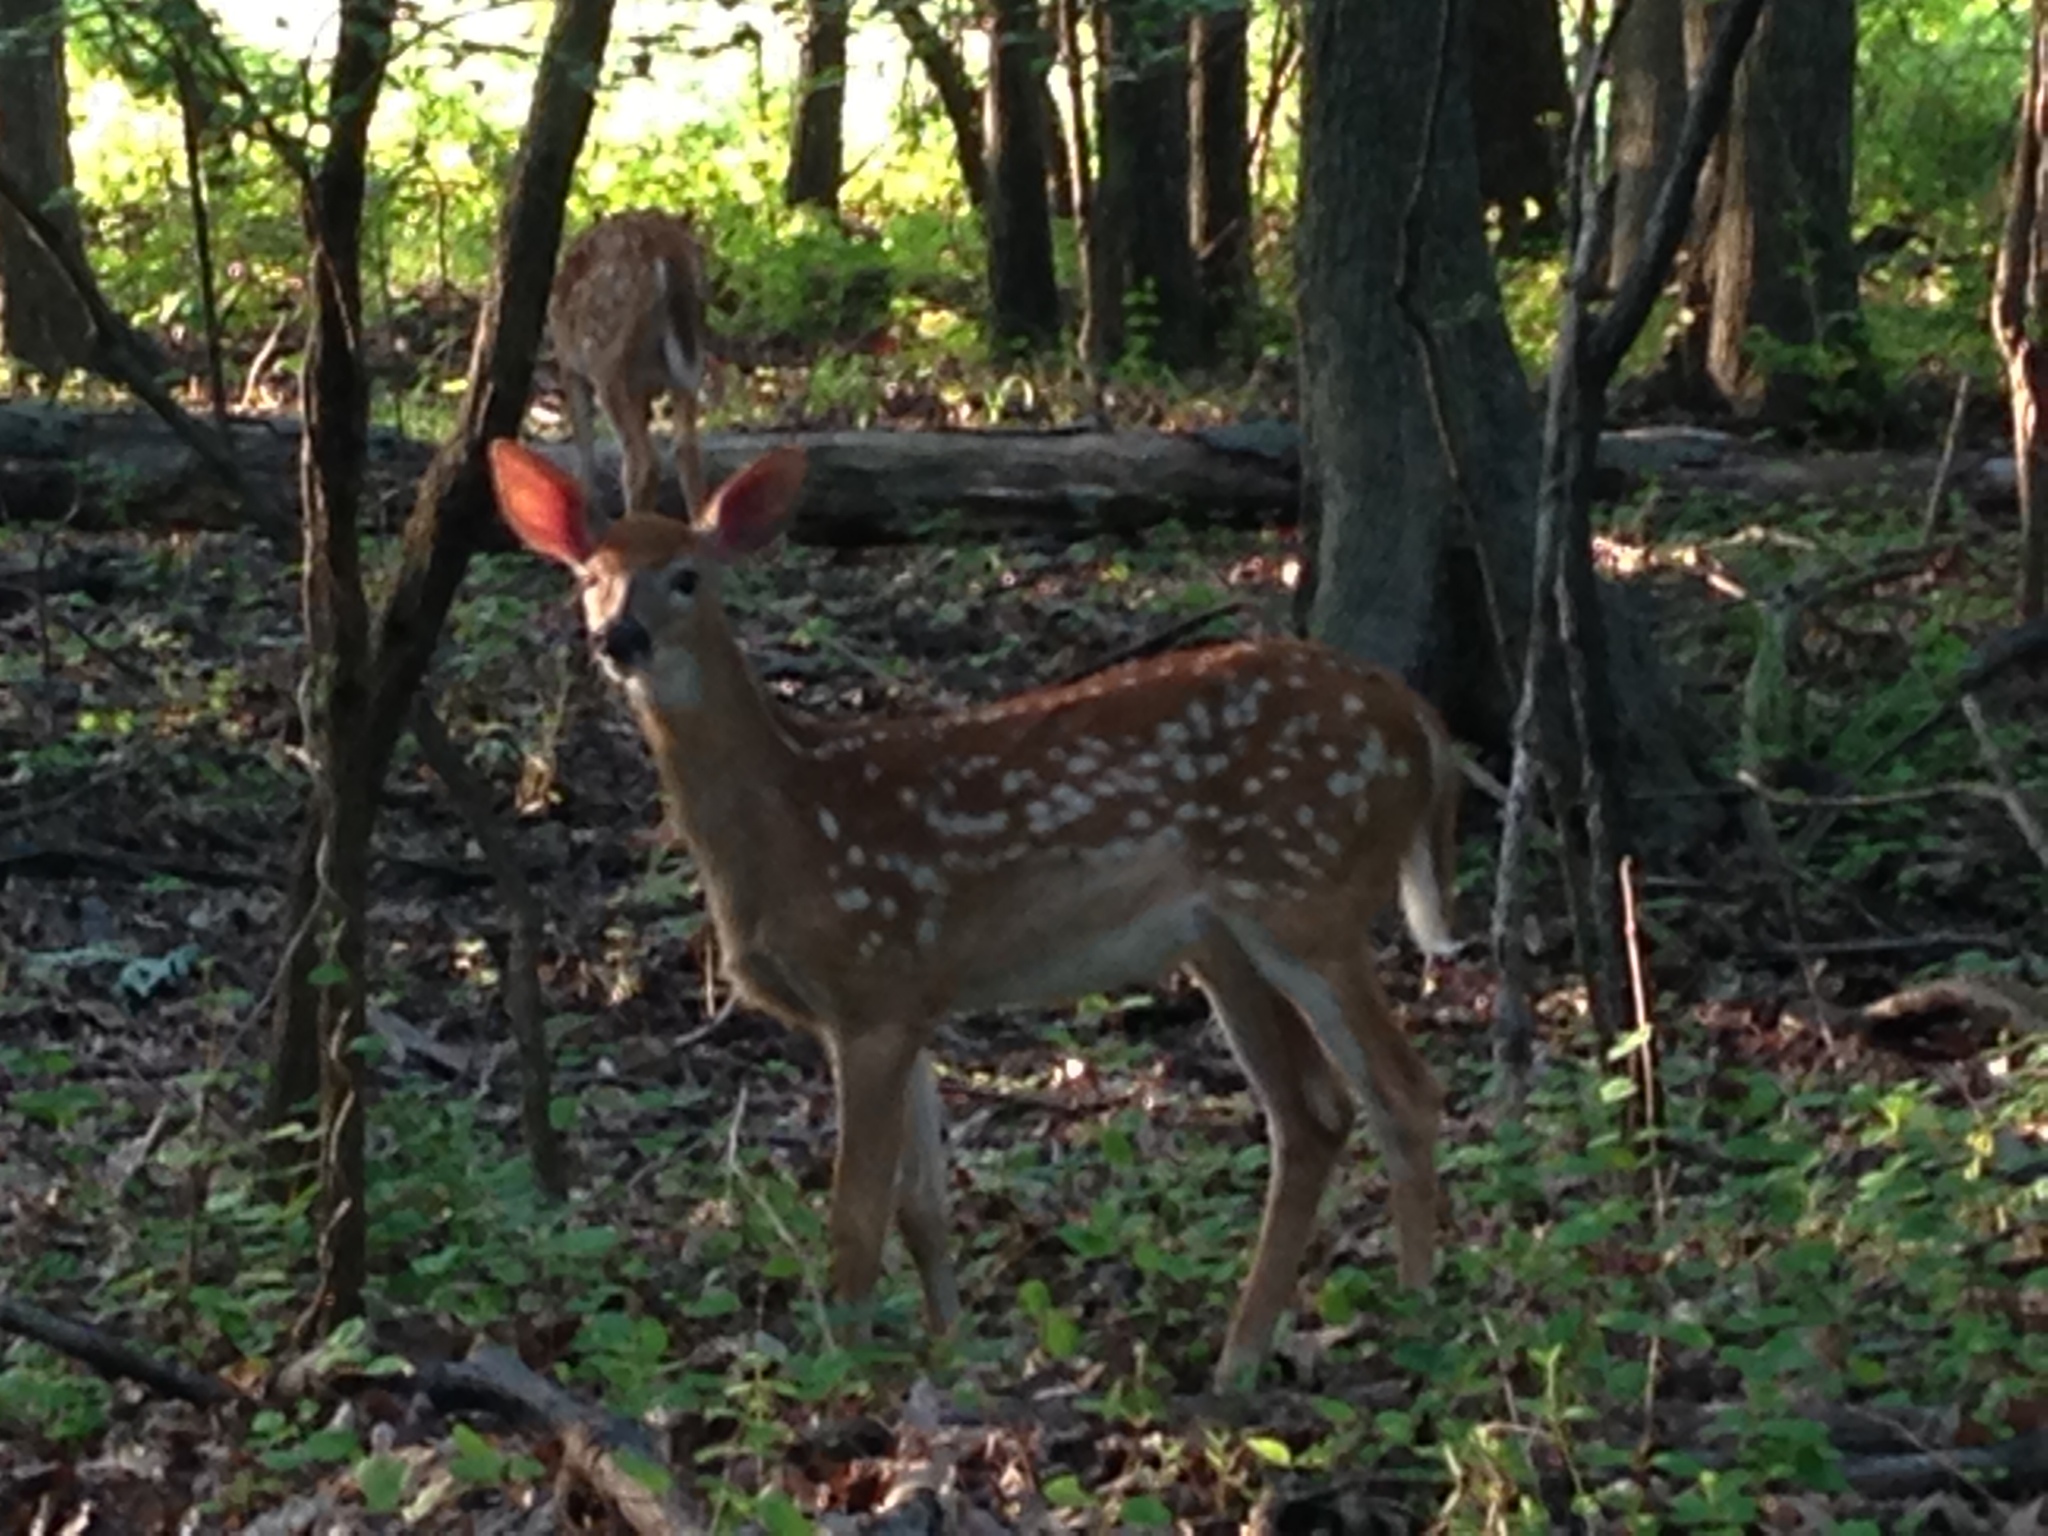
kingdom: Animalia
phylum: Chordata
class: Mammalia
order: Artiodactyla
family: Cervidae
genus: Odocoileus
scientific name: Odocoileus virginianus
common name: White-tailed deer
